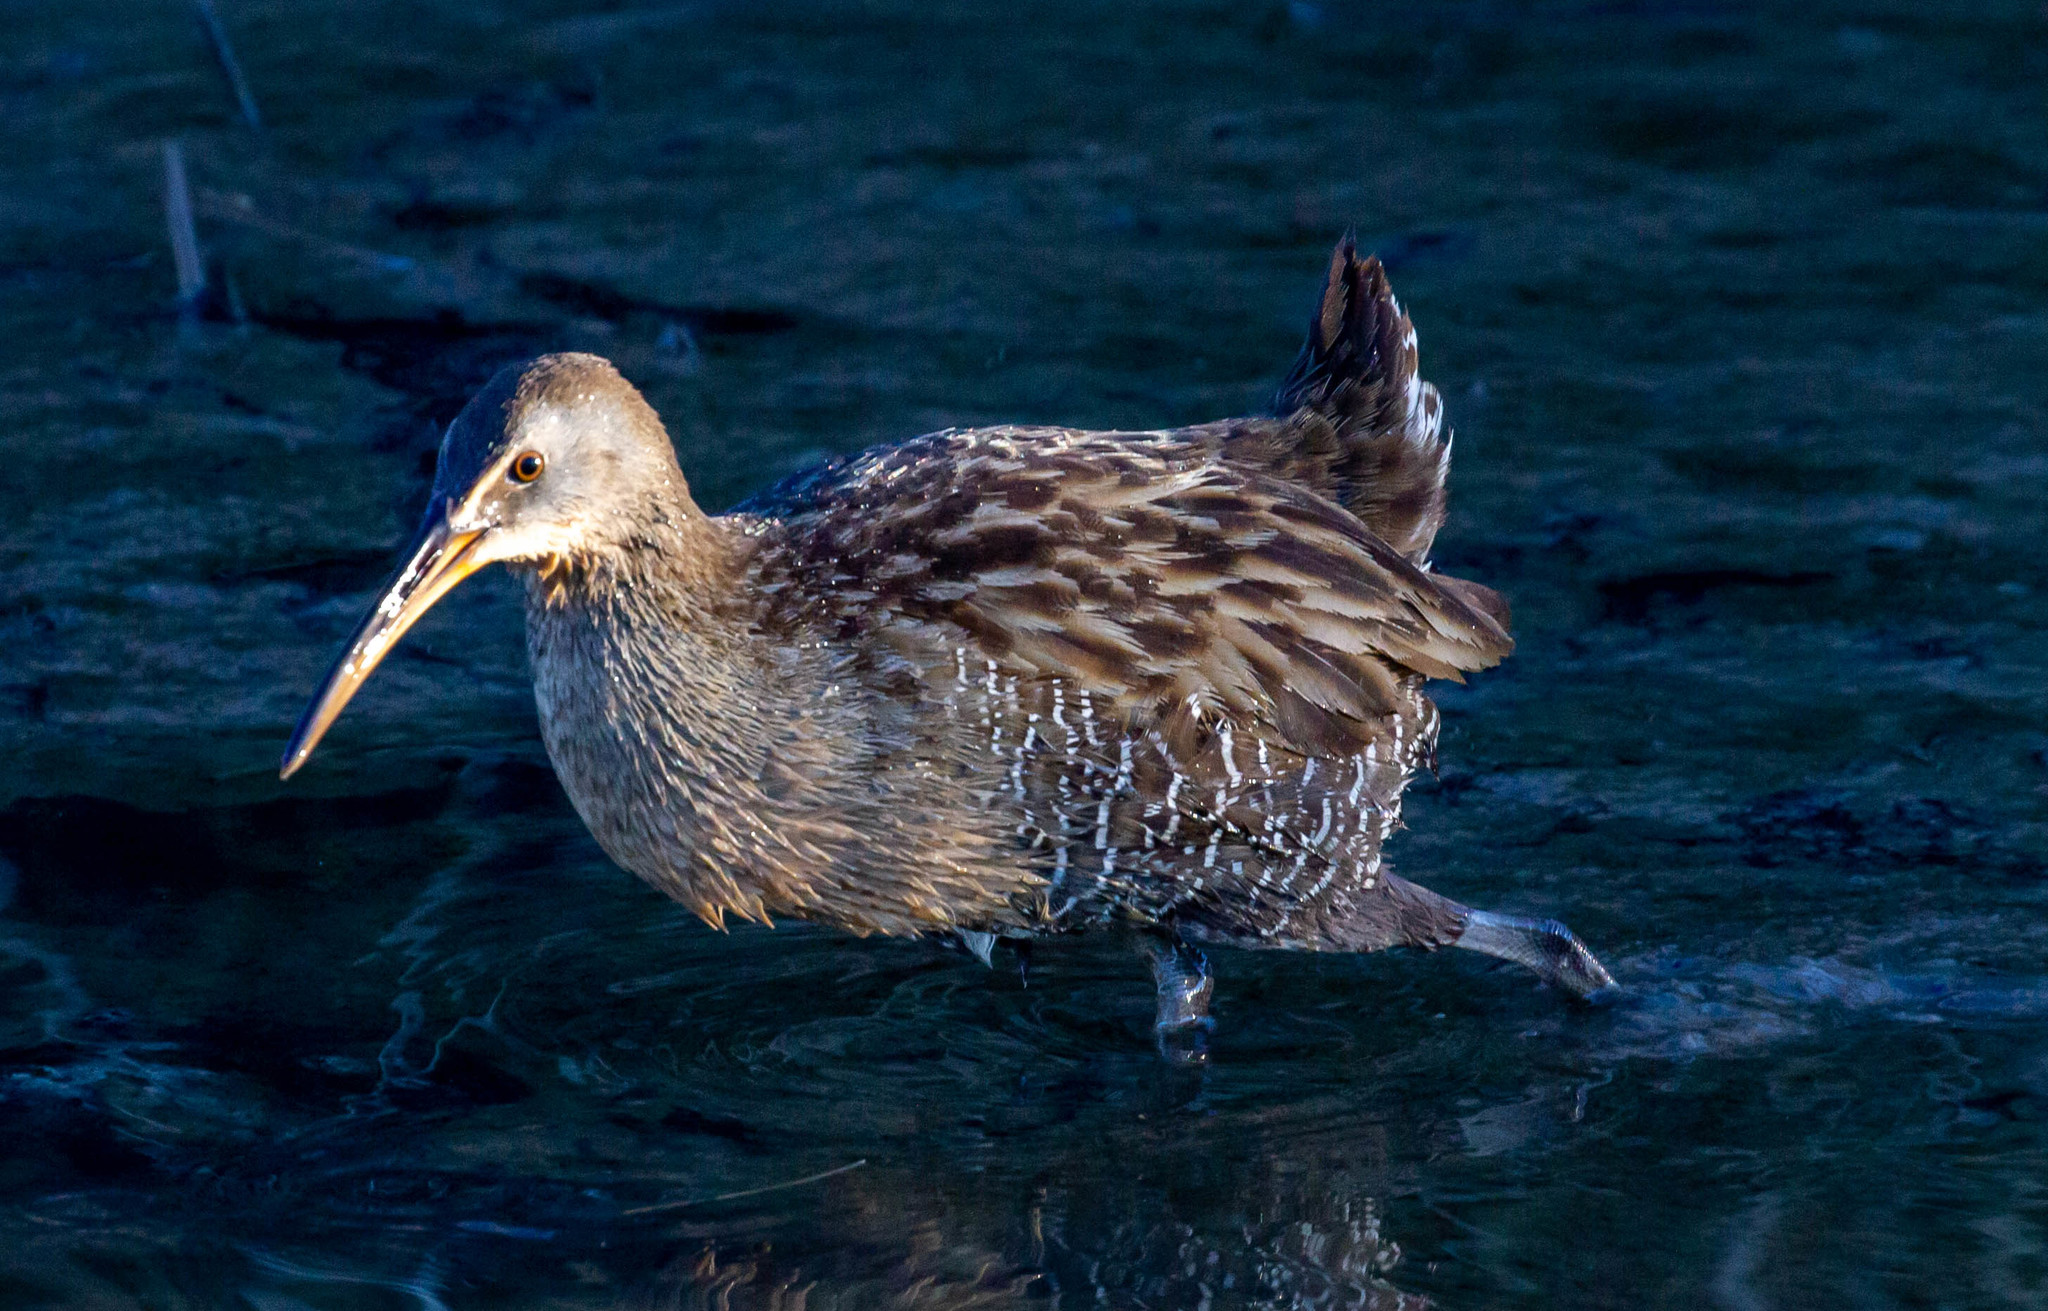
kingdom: Animalia
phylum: Chordata
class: Aves
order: Gruiformes
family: Rallidae
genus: Rallus
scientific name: Rallus crepitans
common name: Clapper rail
